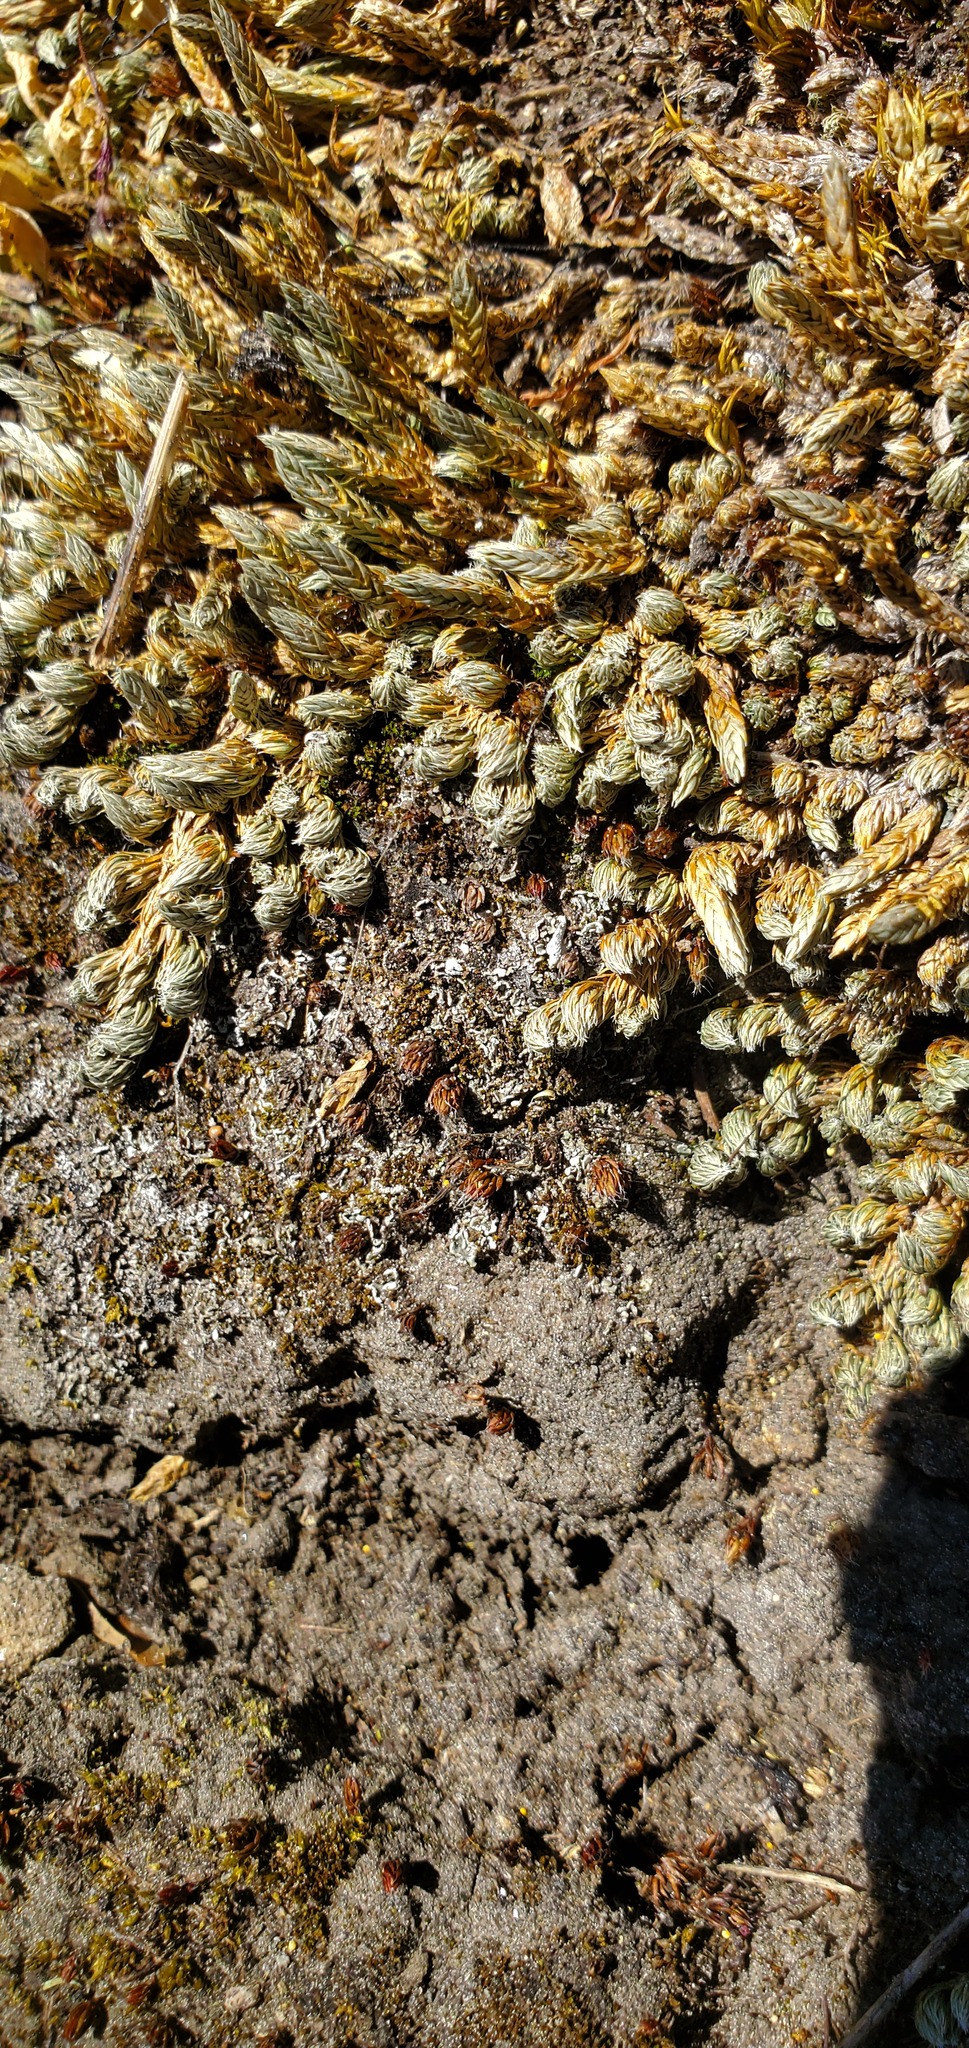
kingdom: Plantae
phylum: Tracheophyta
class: Lycopodiopsida
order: Selaginellales
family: Selaginellaceae
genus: Selaginella
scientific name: Selaginella densa
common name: Mountain spike-moss
